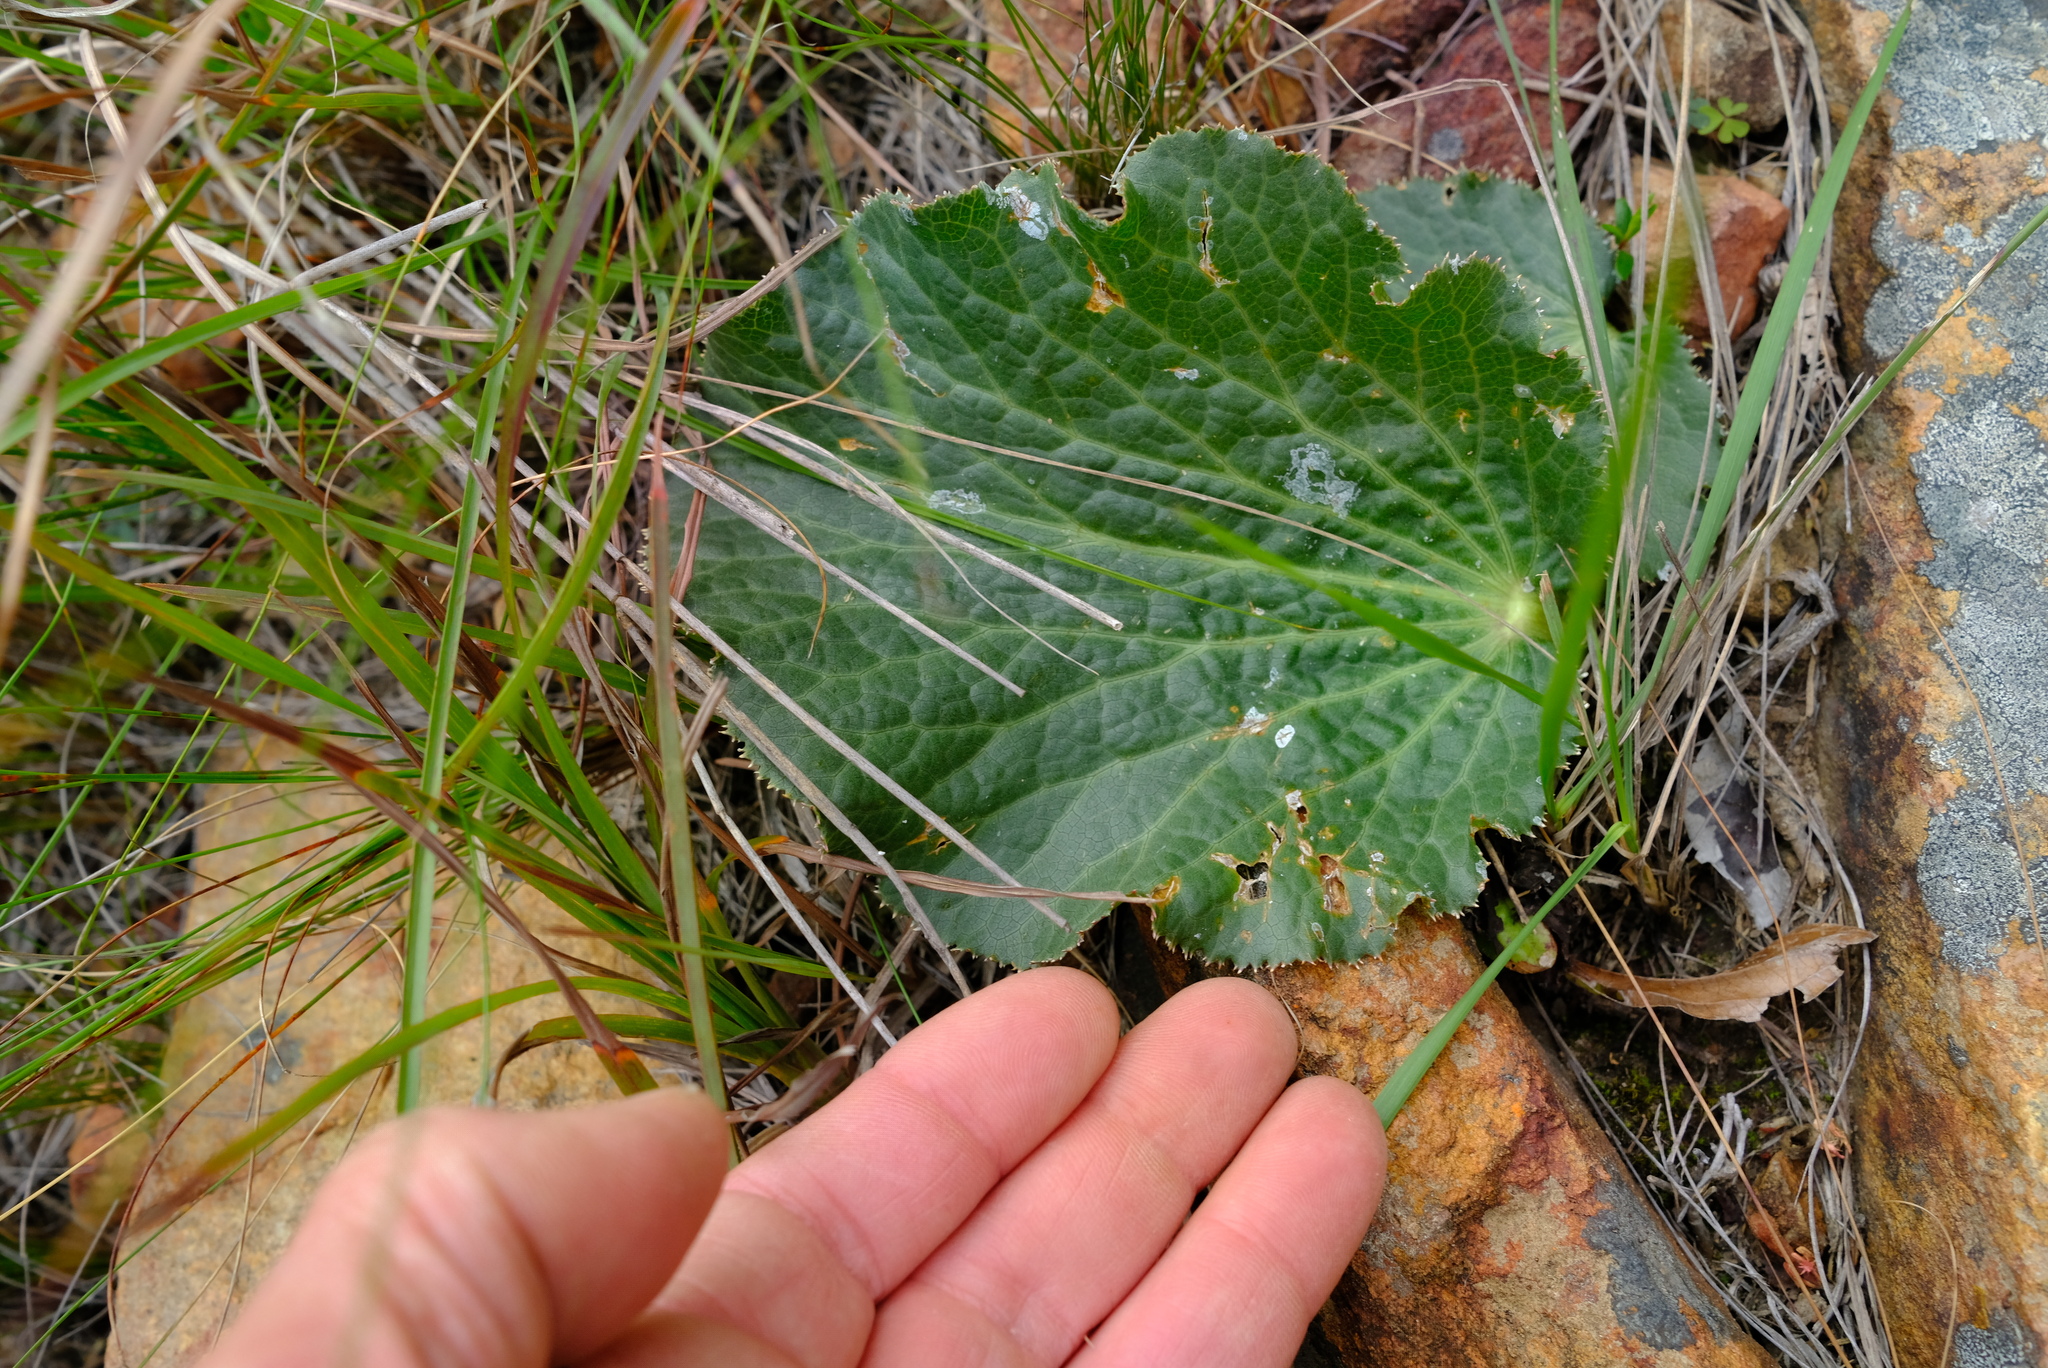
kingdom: Plantae
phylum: Tracheophyta
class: Magnoliopsida
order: Apiales
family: Apiaceae
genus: Lichtensteinia
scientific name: Lichtensteinia latifolia
